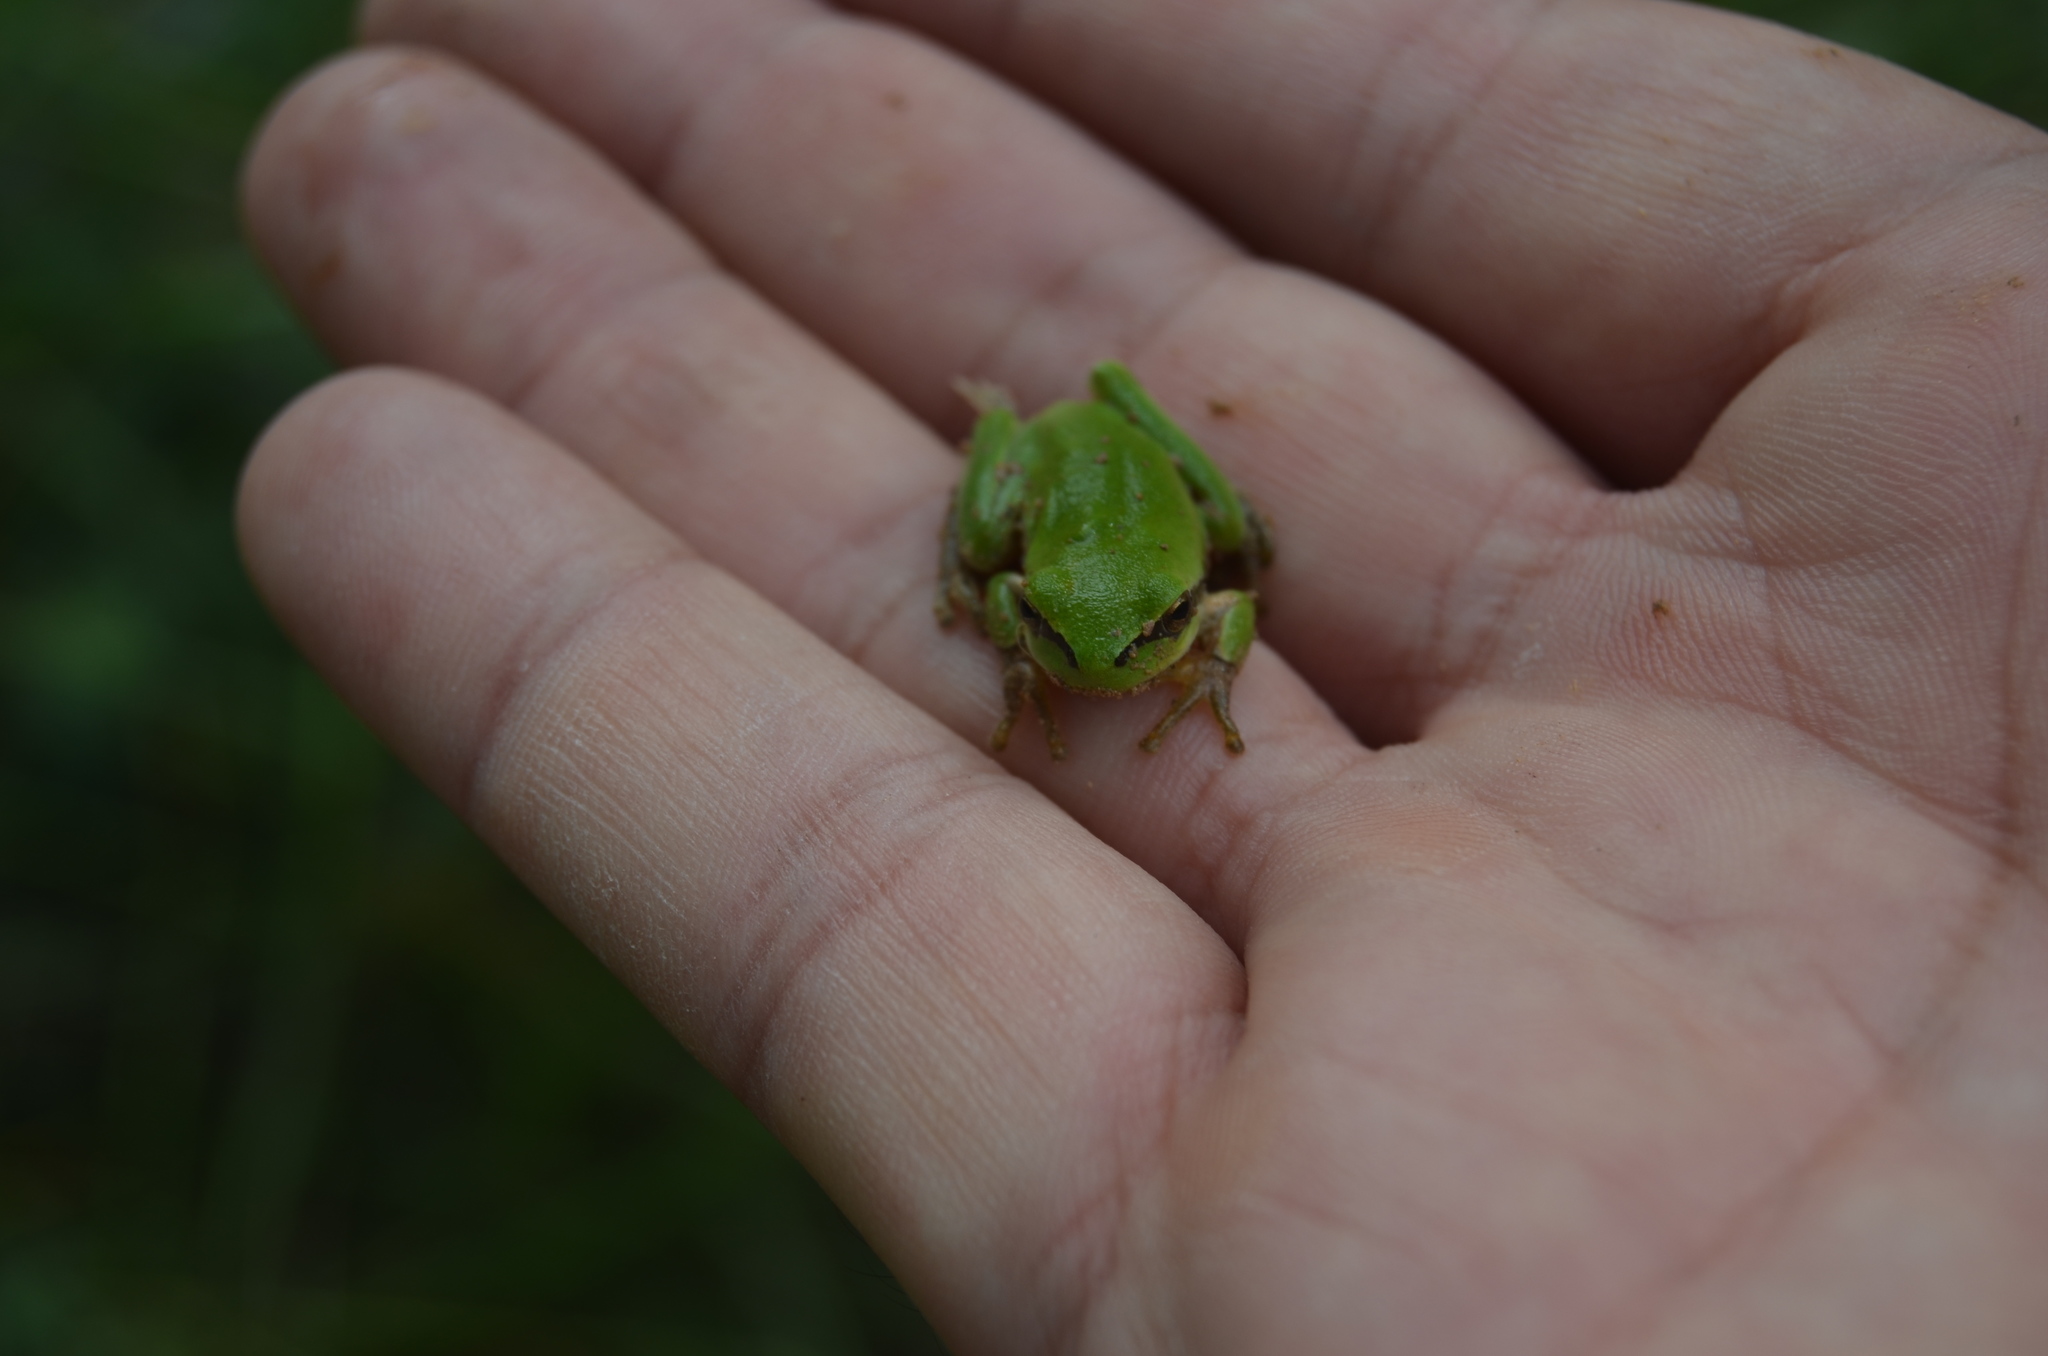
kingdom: Animalia
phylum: Chordata
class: Amphibia
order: Anura
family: Hylidae
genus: Hyla
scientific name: Hyla meridionalis
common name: Stripeless tree frog
